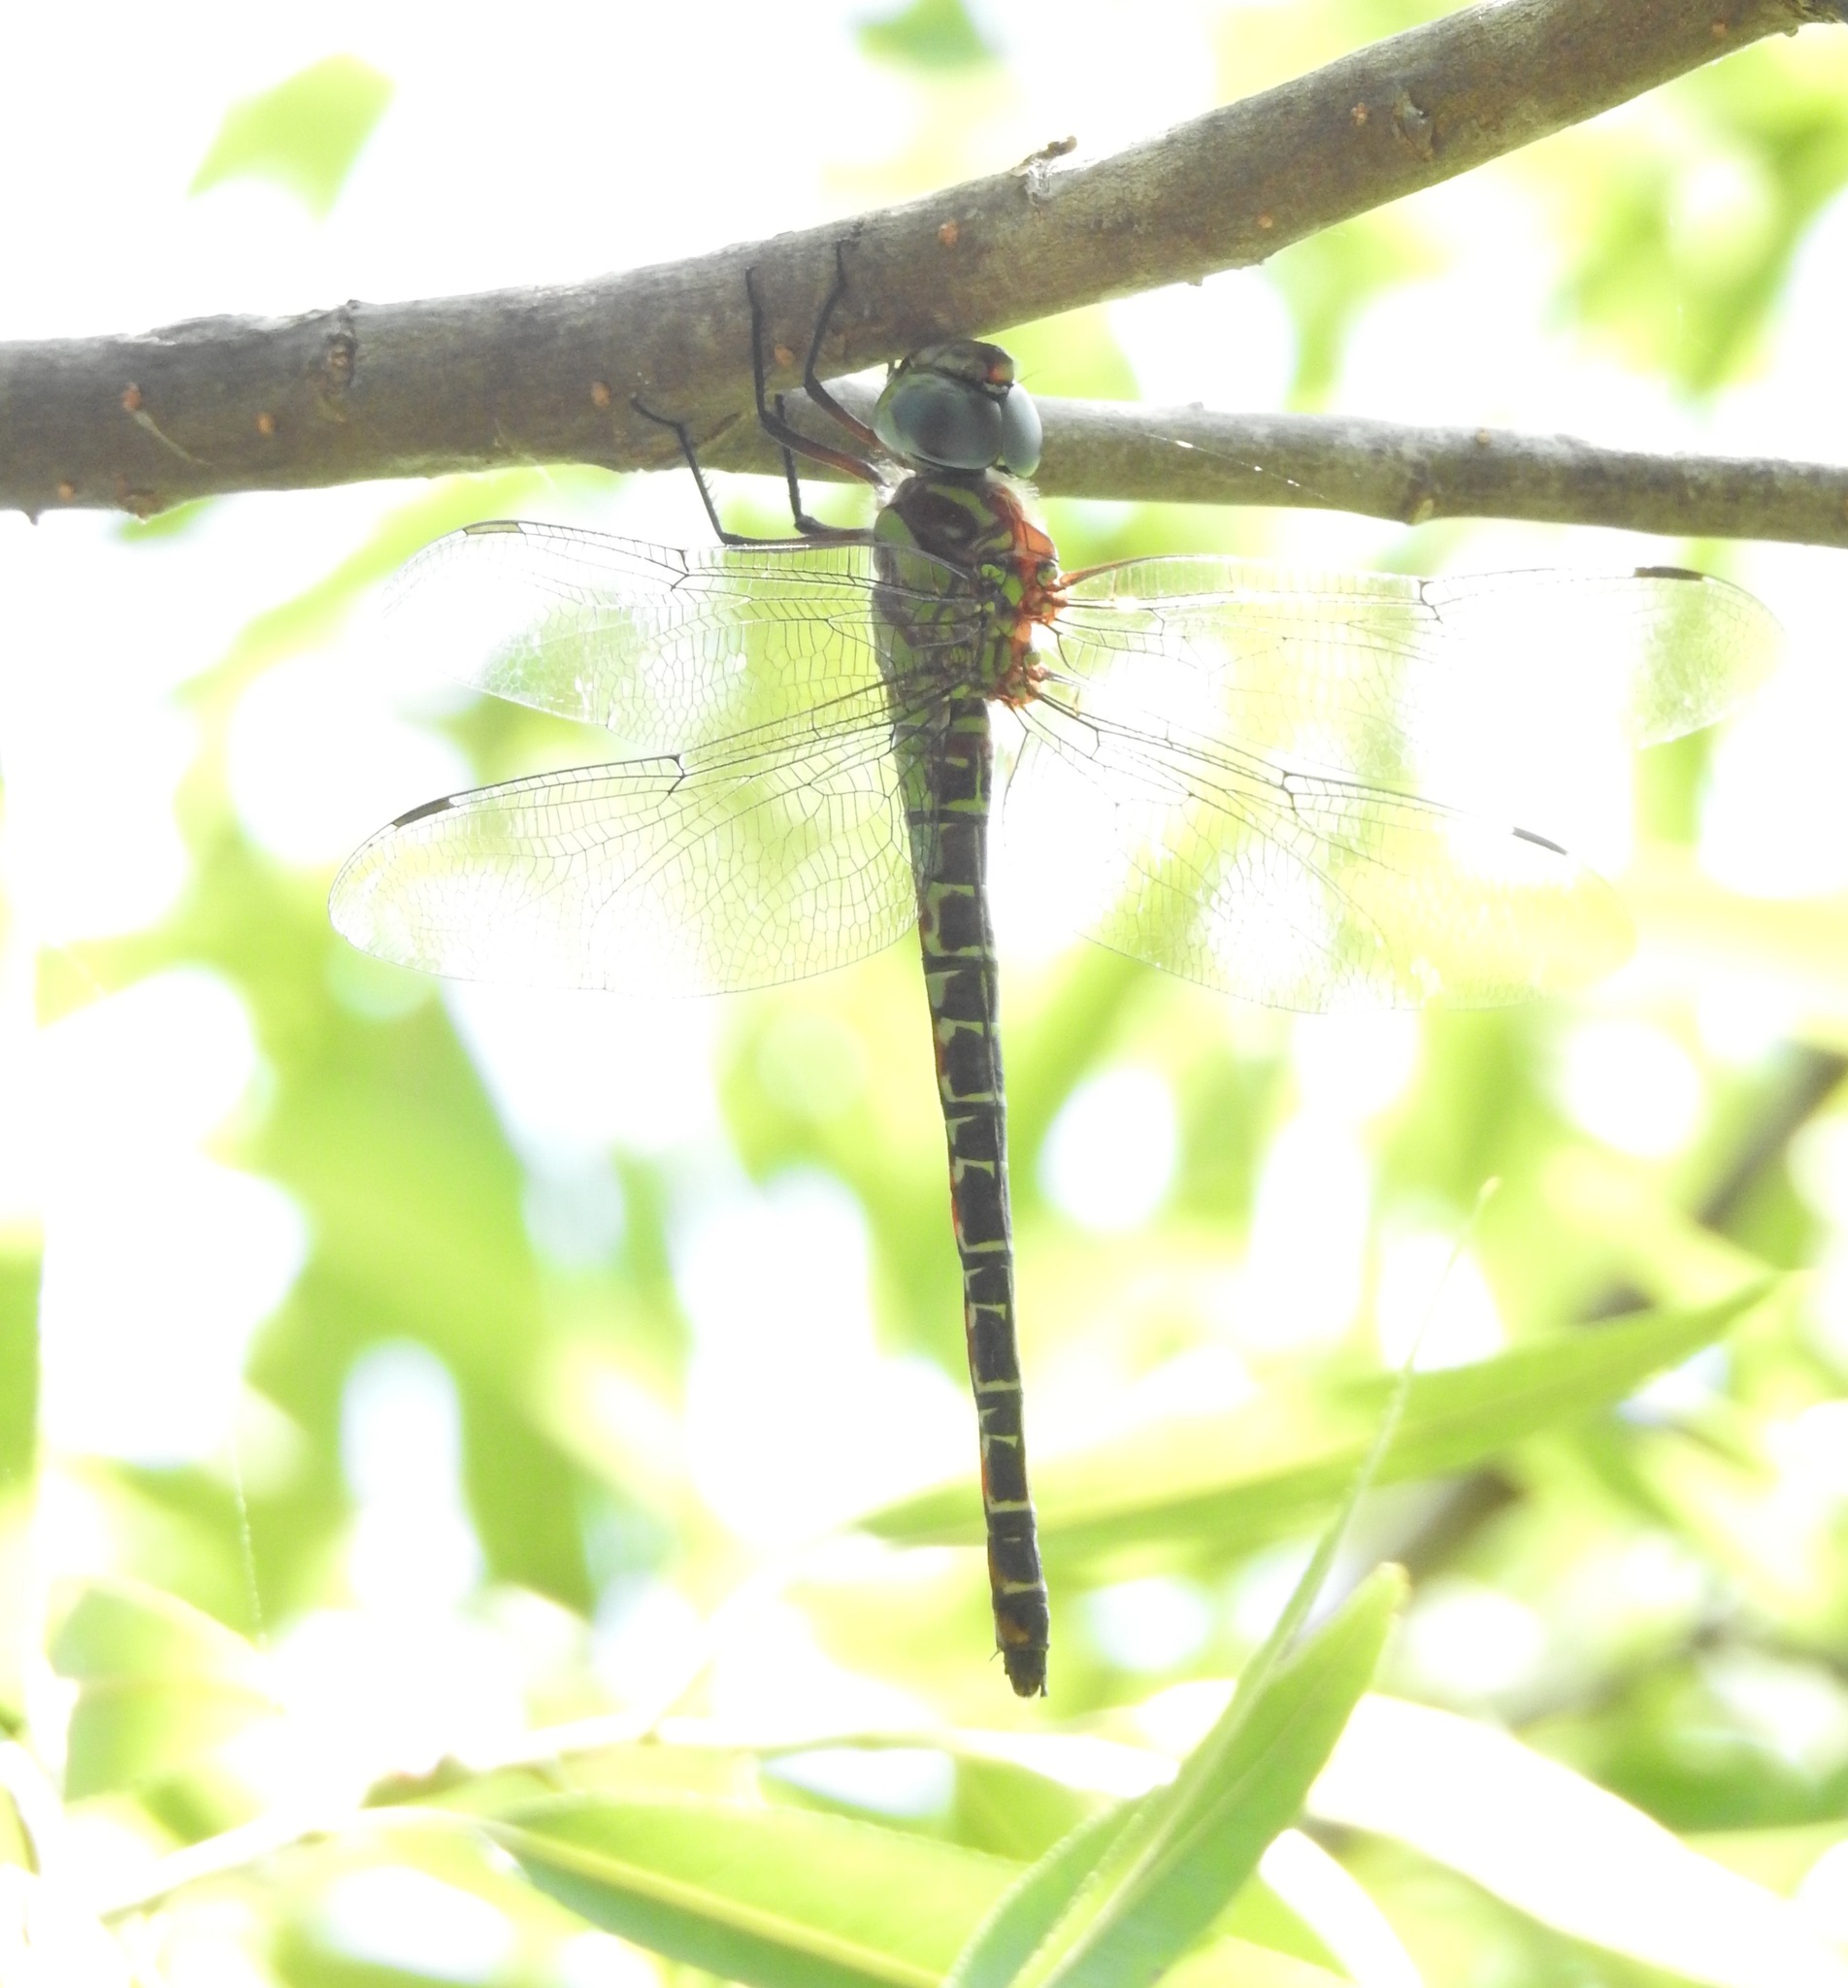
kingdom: Animalia
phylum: Arthropoda
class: Insecta
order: Odonata
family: Aeshnidae
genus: Coryphaeschna
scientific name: Coryphaeschna ingens
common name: Regal darner
